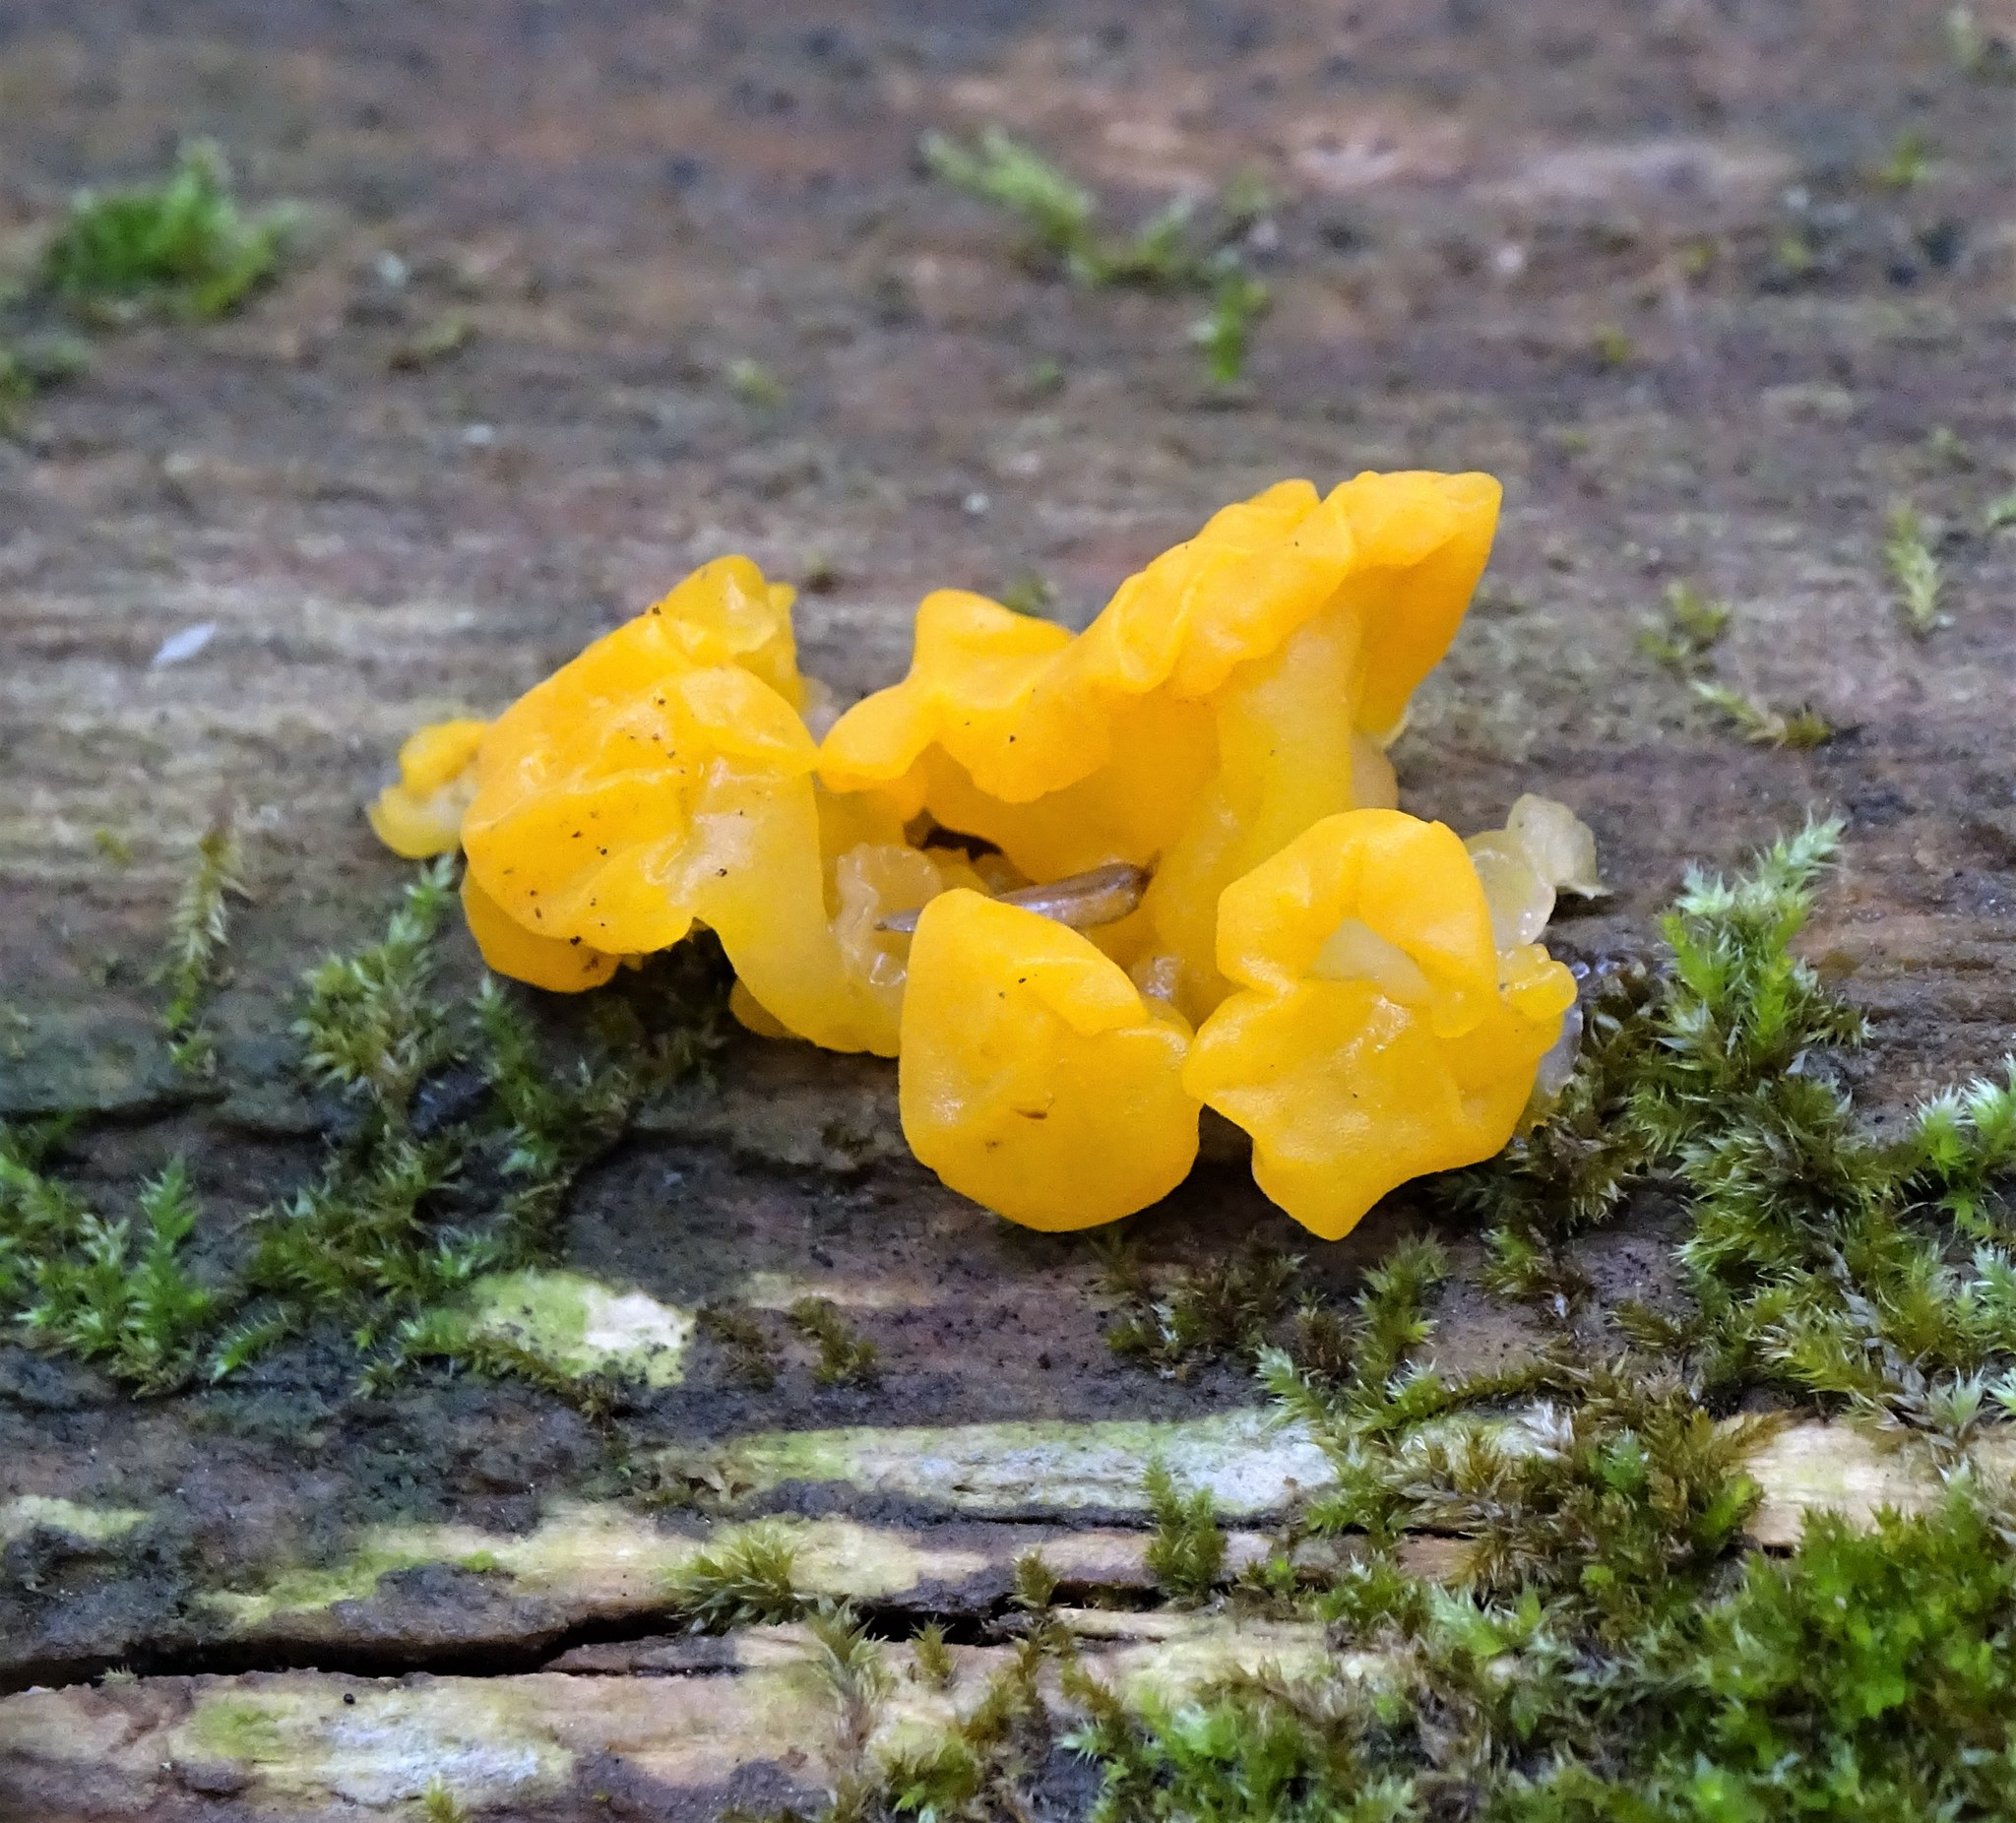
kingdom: Fungi
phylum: Basidiomycota
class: Dacrymycetes
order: Dacrymycetales
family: Dacrymycetaceae
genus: Dacrymyces
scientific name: Dacrymyces chrysospermus
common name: Orange jelly spot
